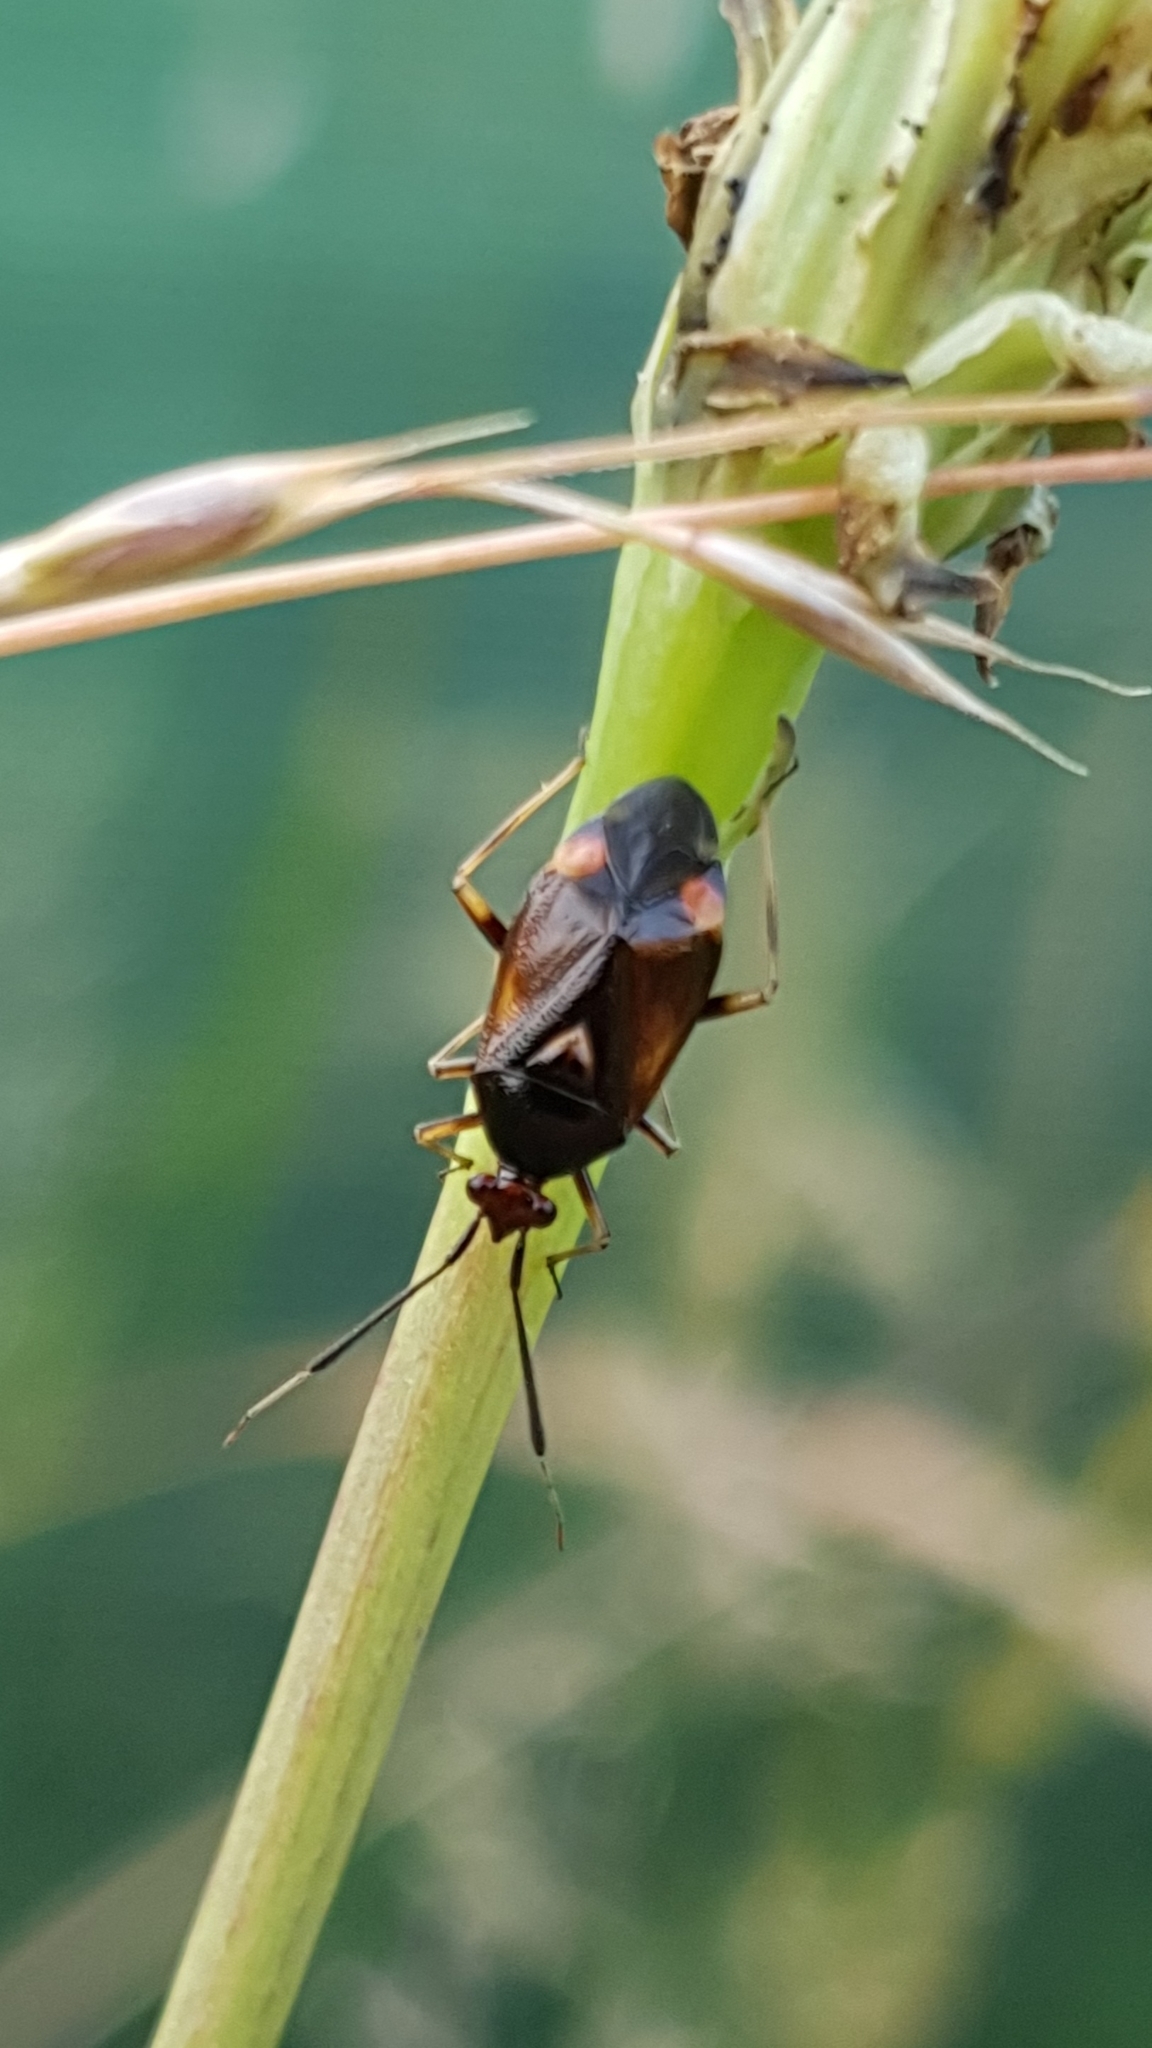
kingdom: Animalia
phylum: Arthropoda
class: Insecta
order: Hemiptera
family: Miridae
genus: Deraeocoris
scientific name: Deraeocoris ruber
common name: Plant bug
